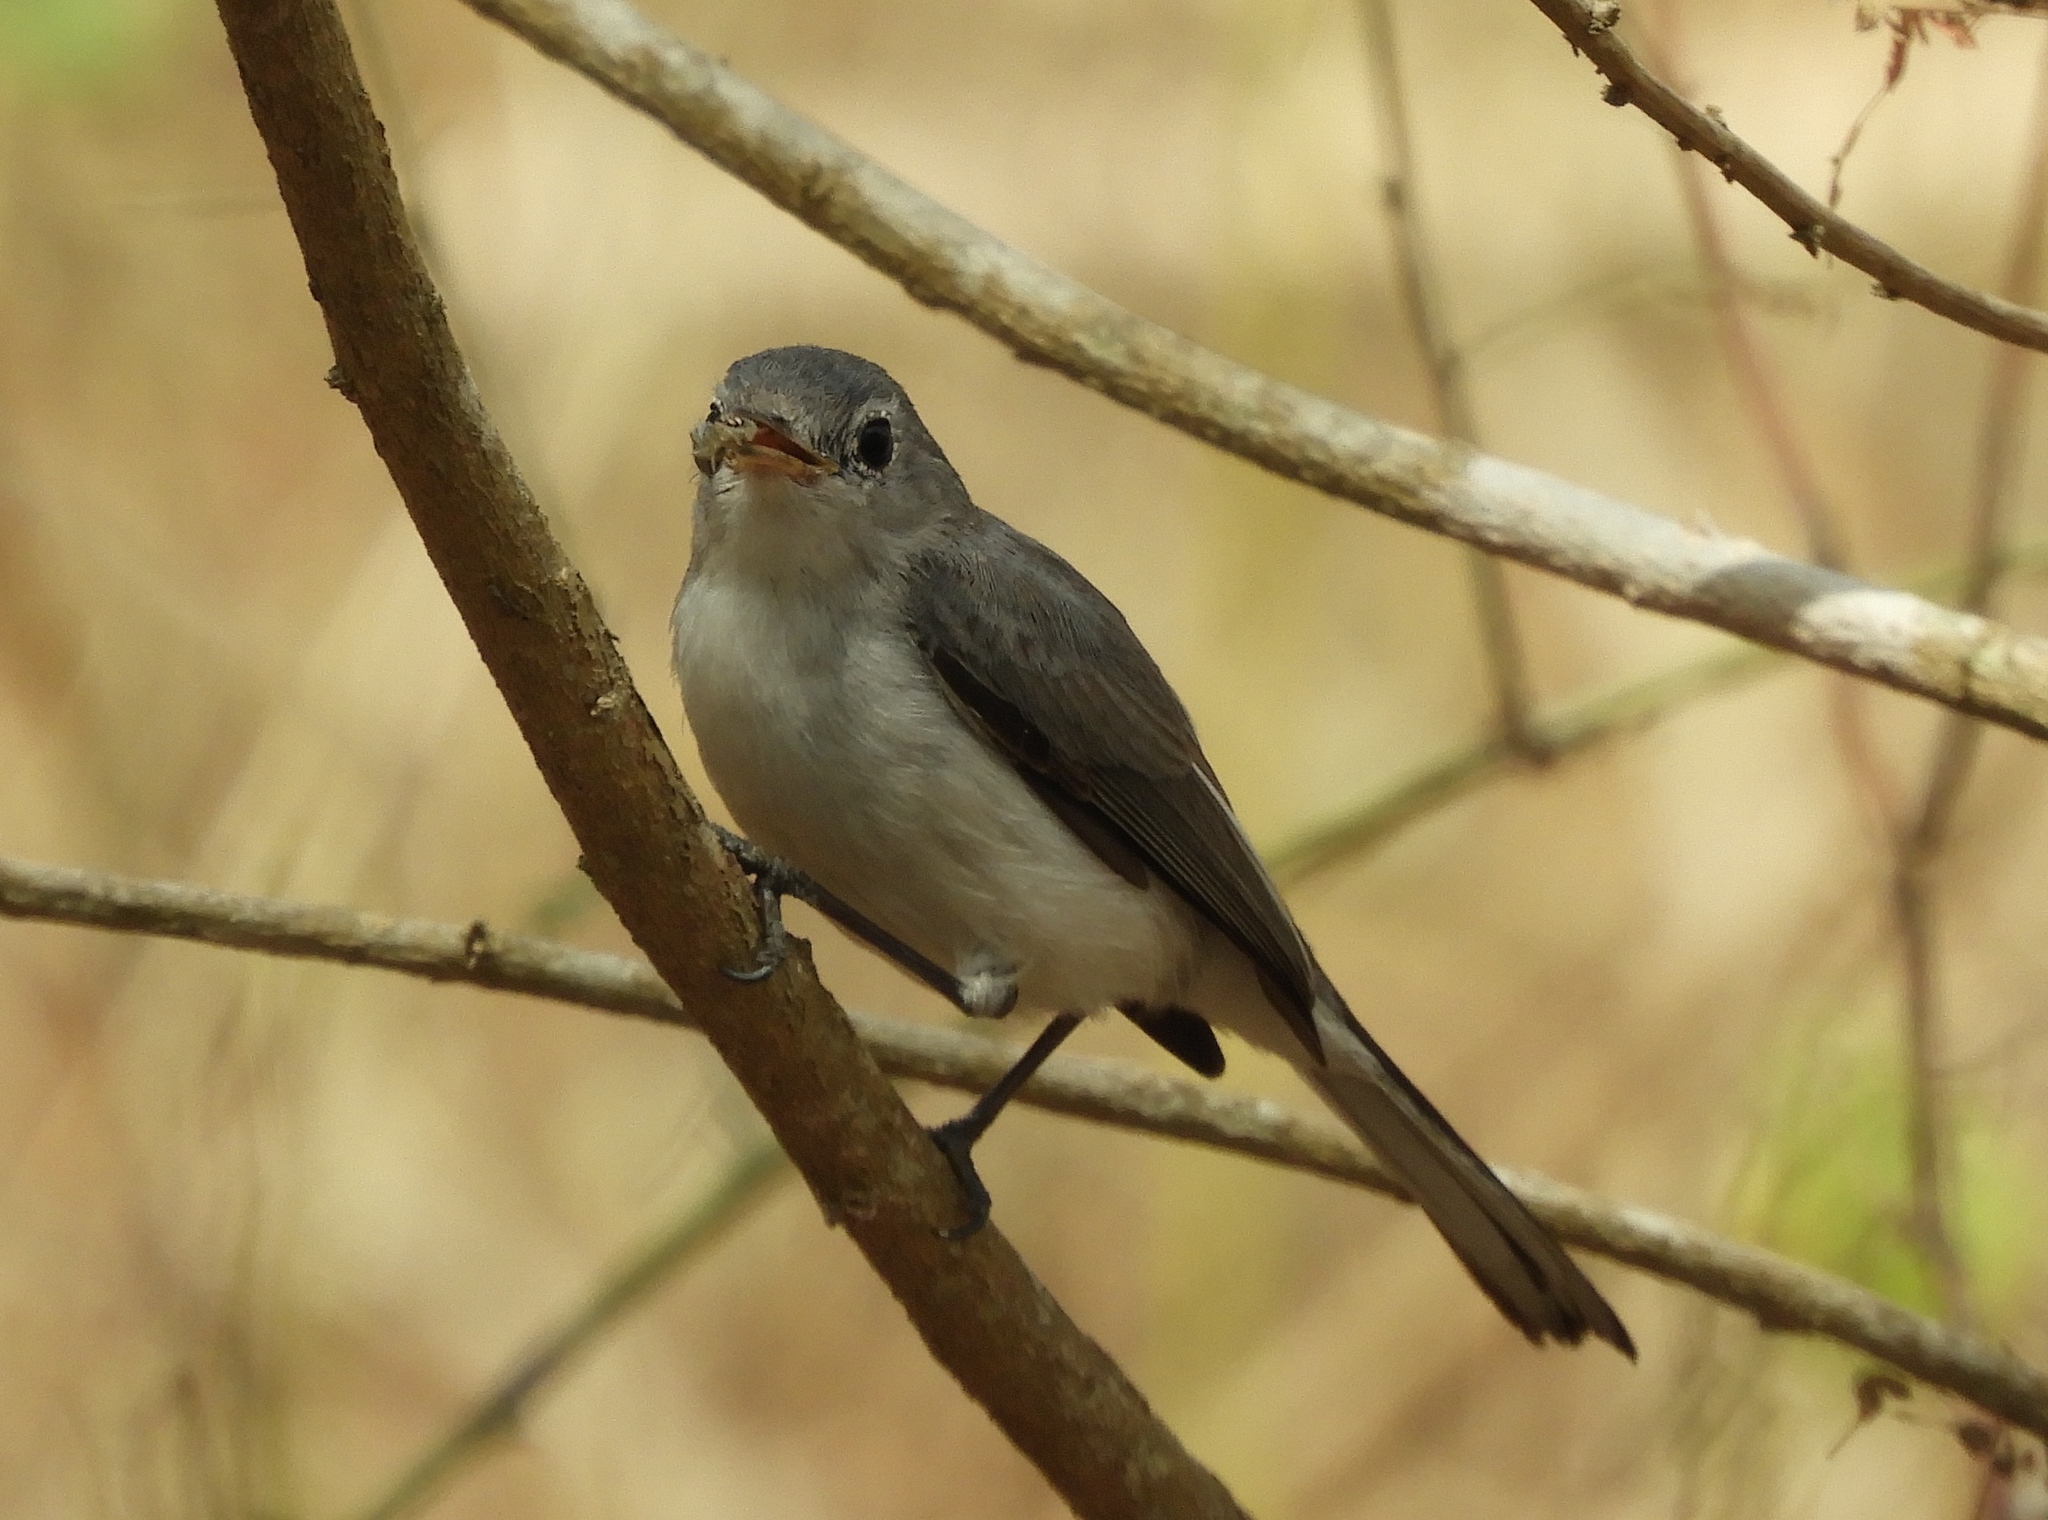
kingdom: Animalia
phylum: Chordata
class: Aves
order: Passeriformes
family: Polioptilidae
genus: Polioptila
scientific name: Polioptila
